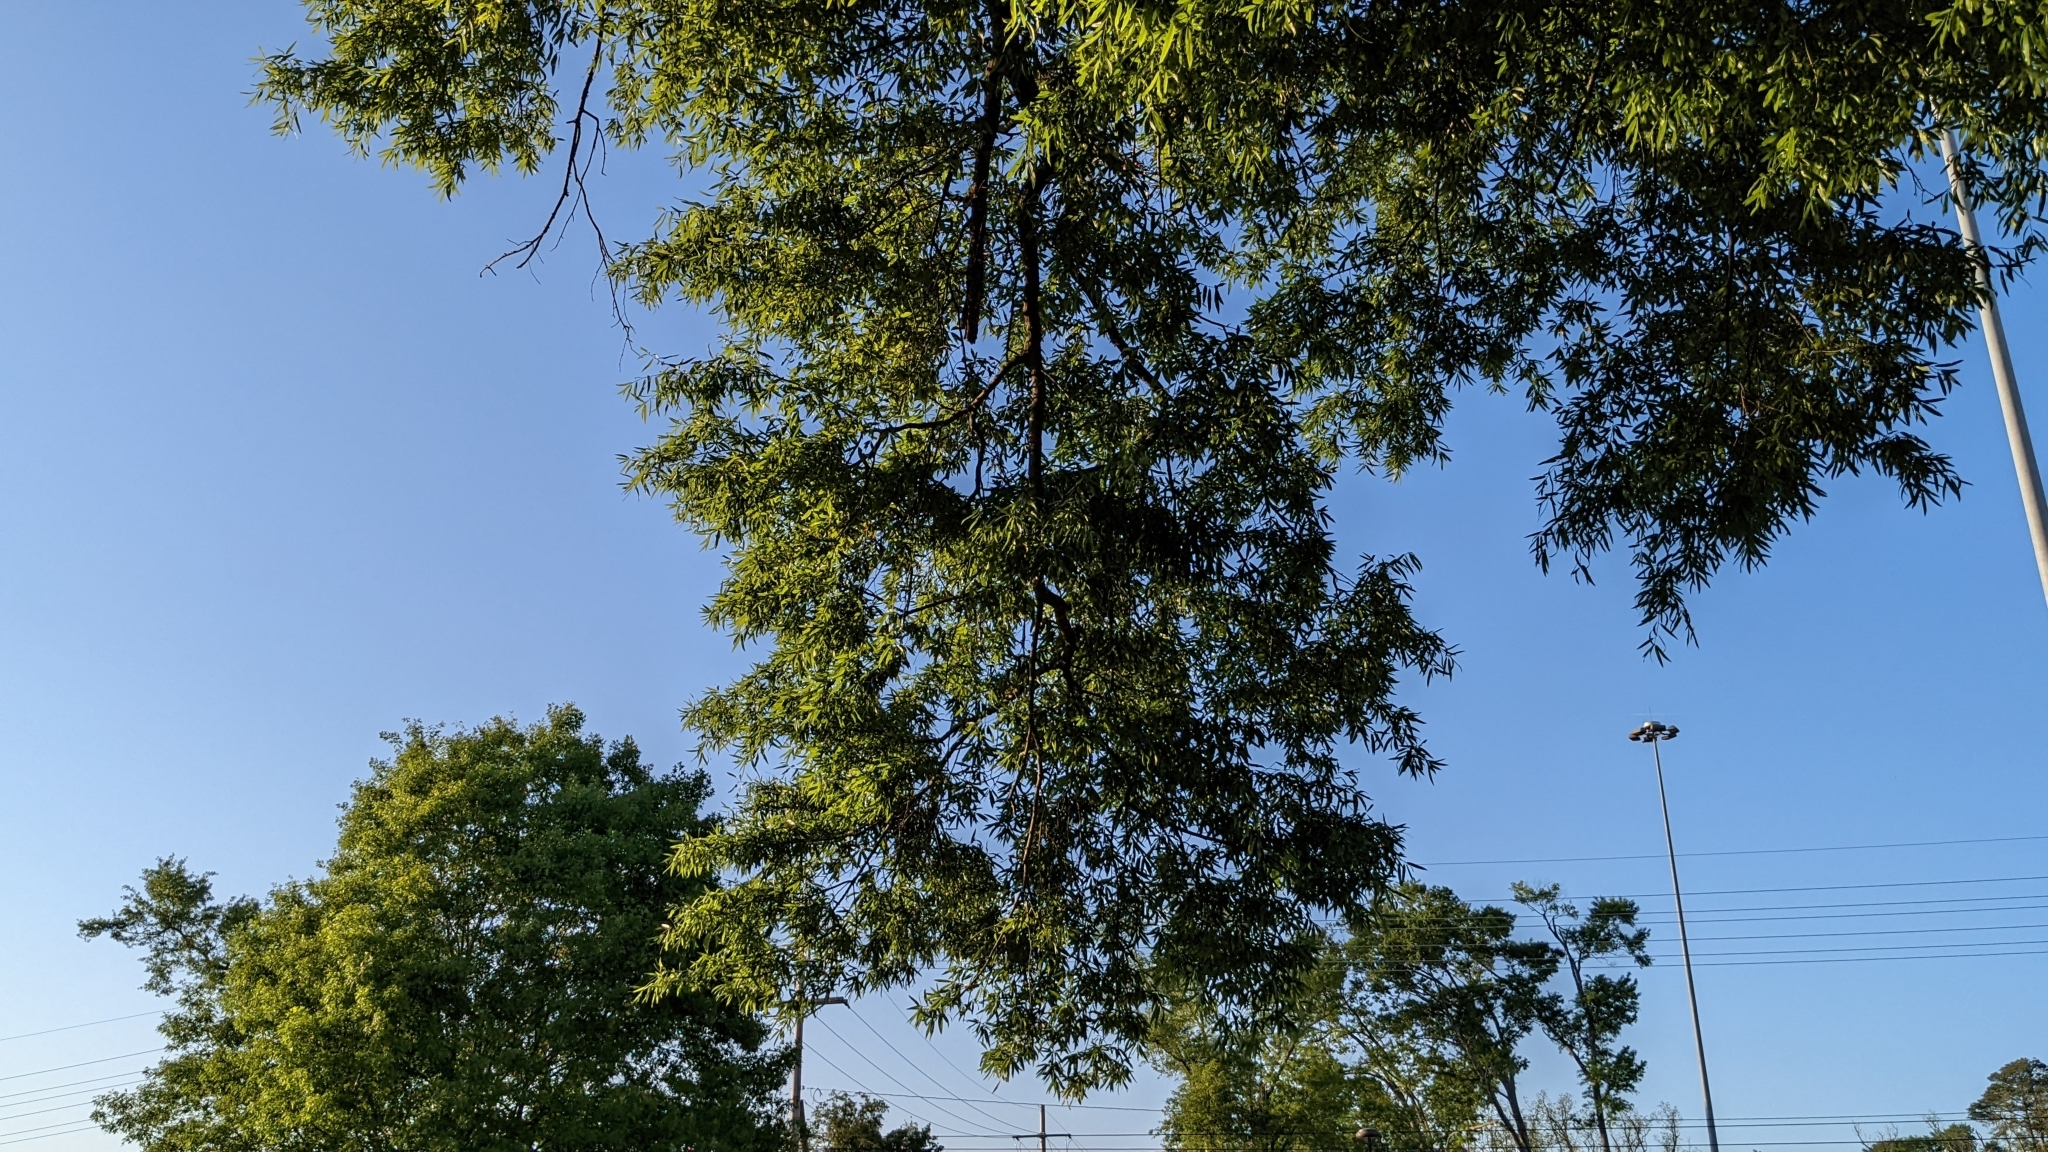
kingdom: Plantae
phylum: Tracheophyta
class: Magnoliopsida
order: Fagales
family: Fagaceae
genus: Quercus
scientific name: Quercus phellos
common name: Willow oak
